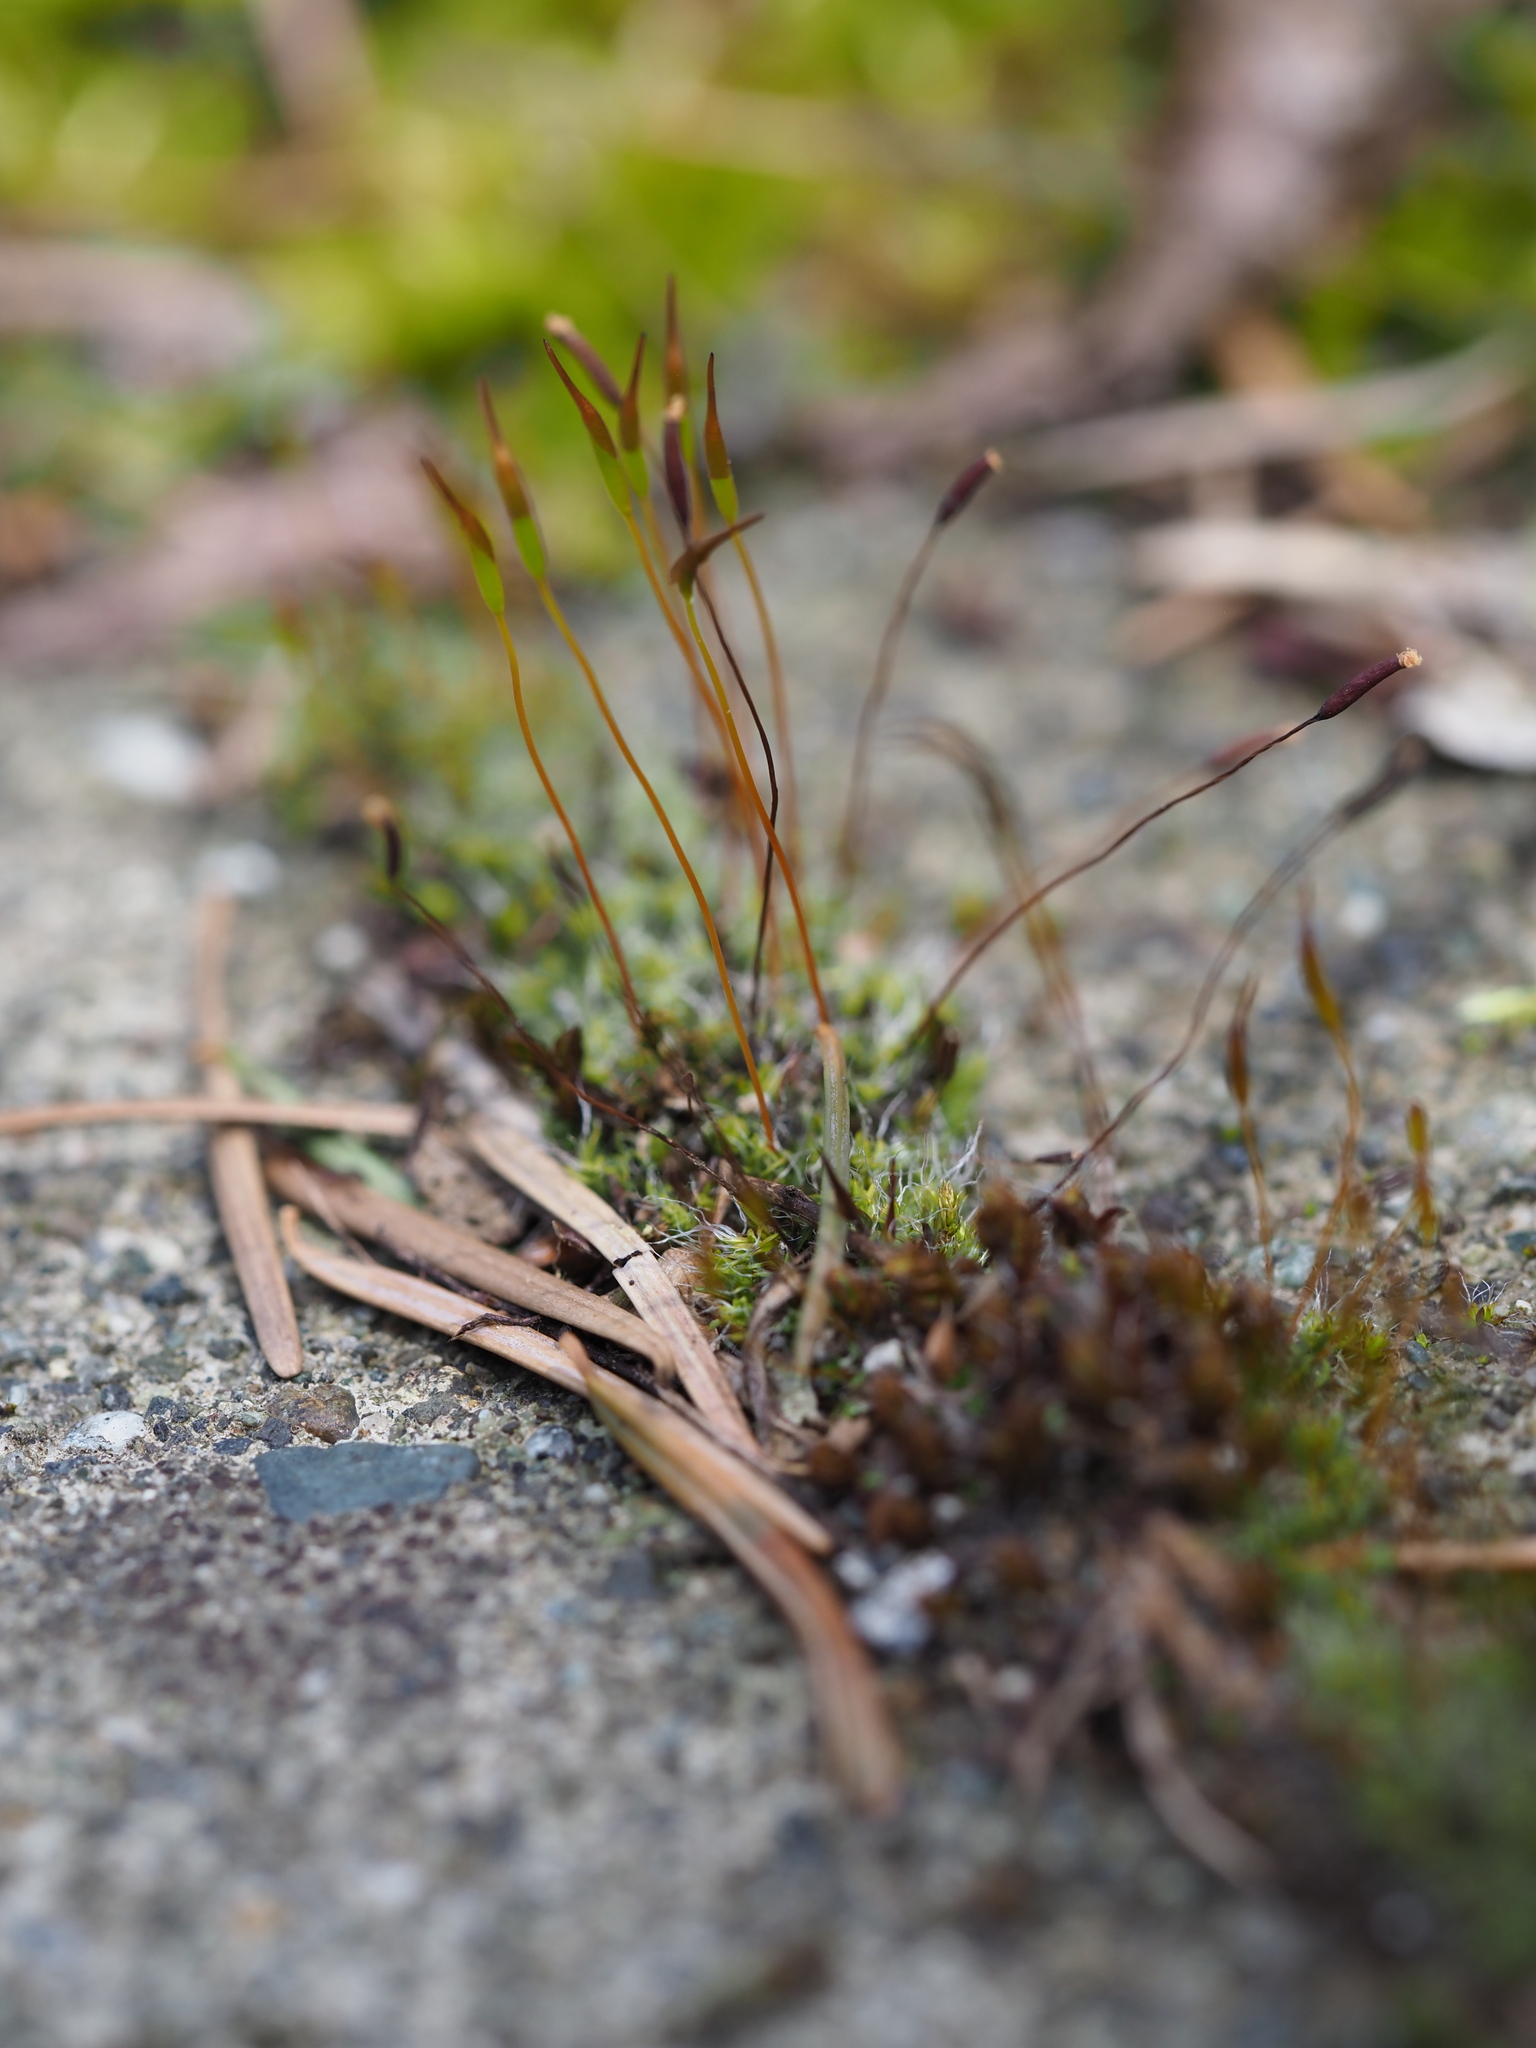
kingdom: Plantae
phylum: Bryophyta
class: Bryopsida
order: Pottiales
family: Pottiaceae
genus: Tortula
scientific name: Tortula muralis
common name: Wall screw-moss
